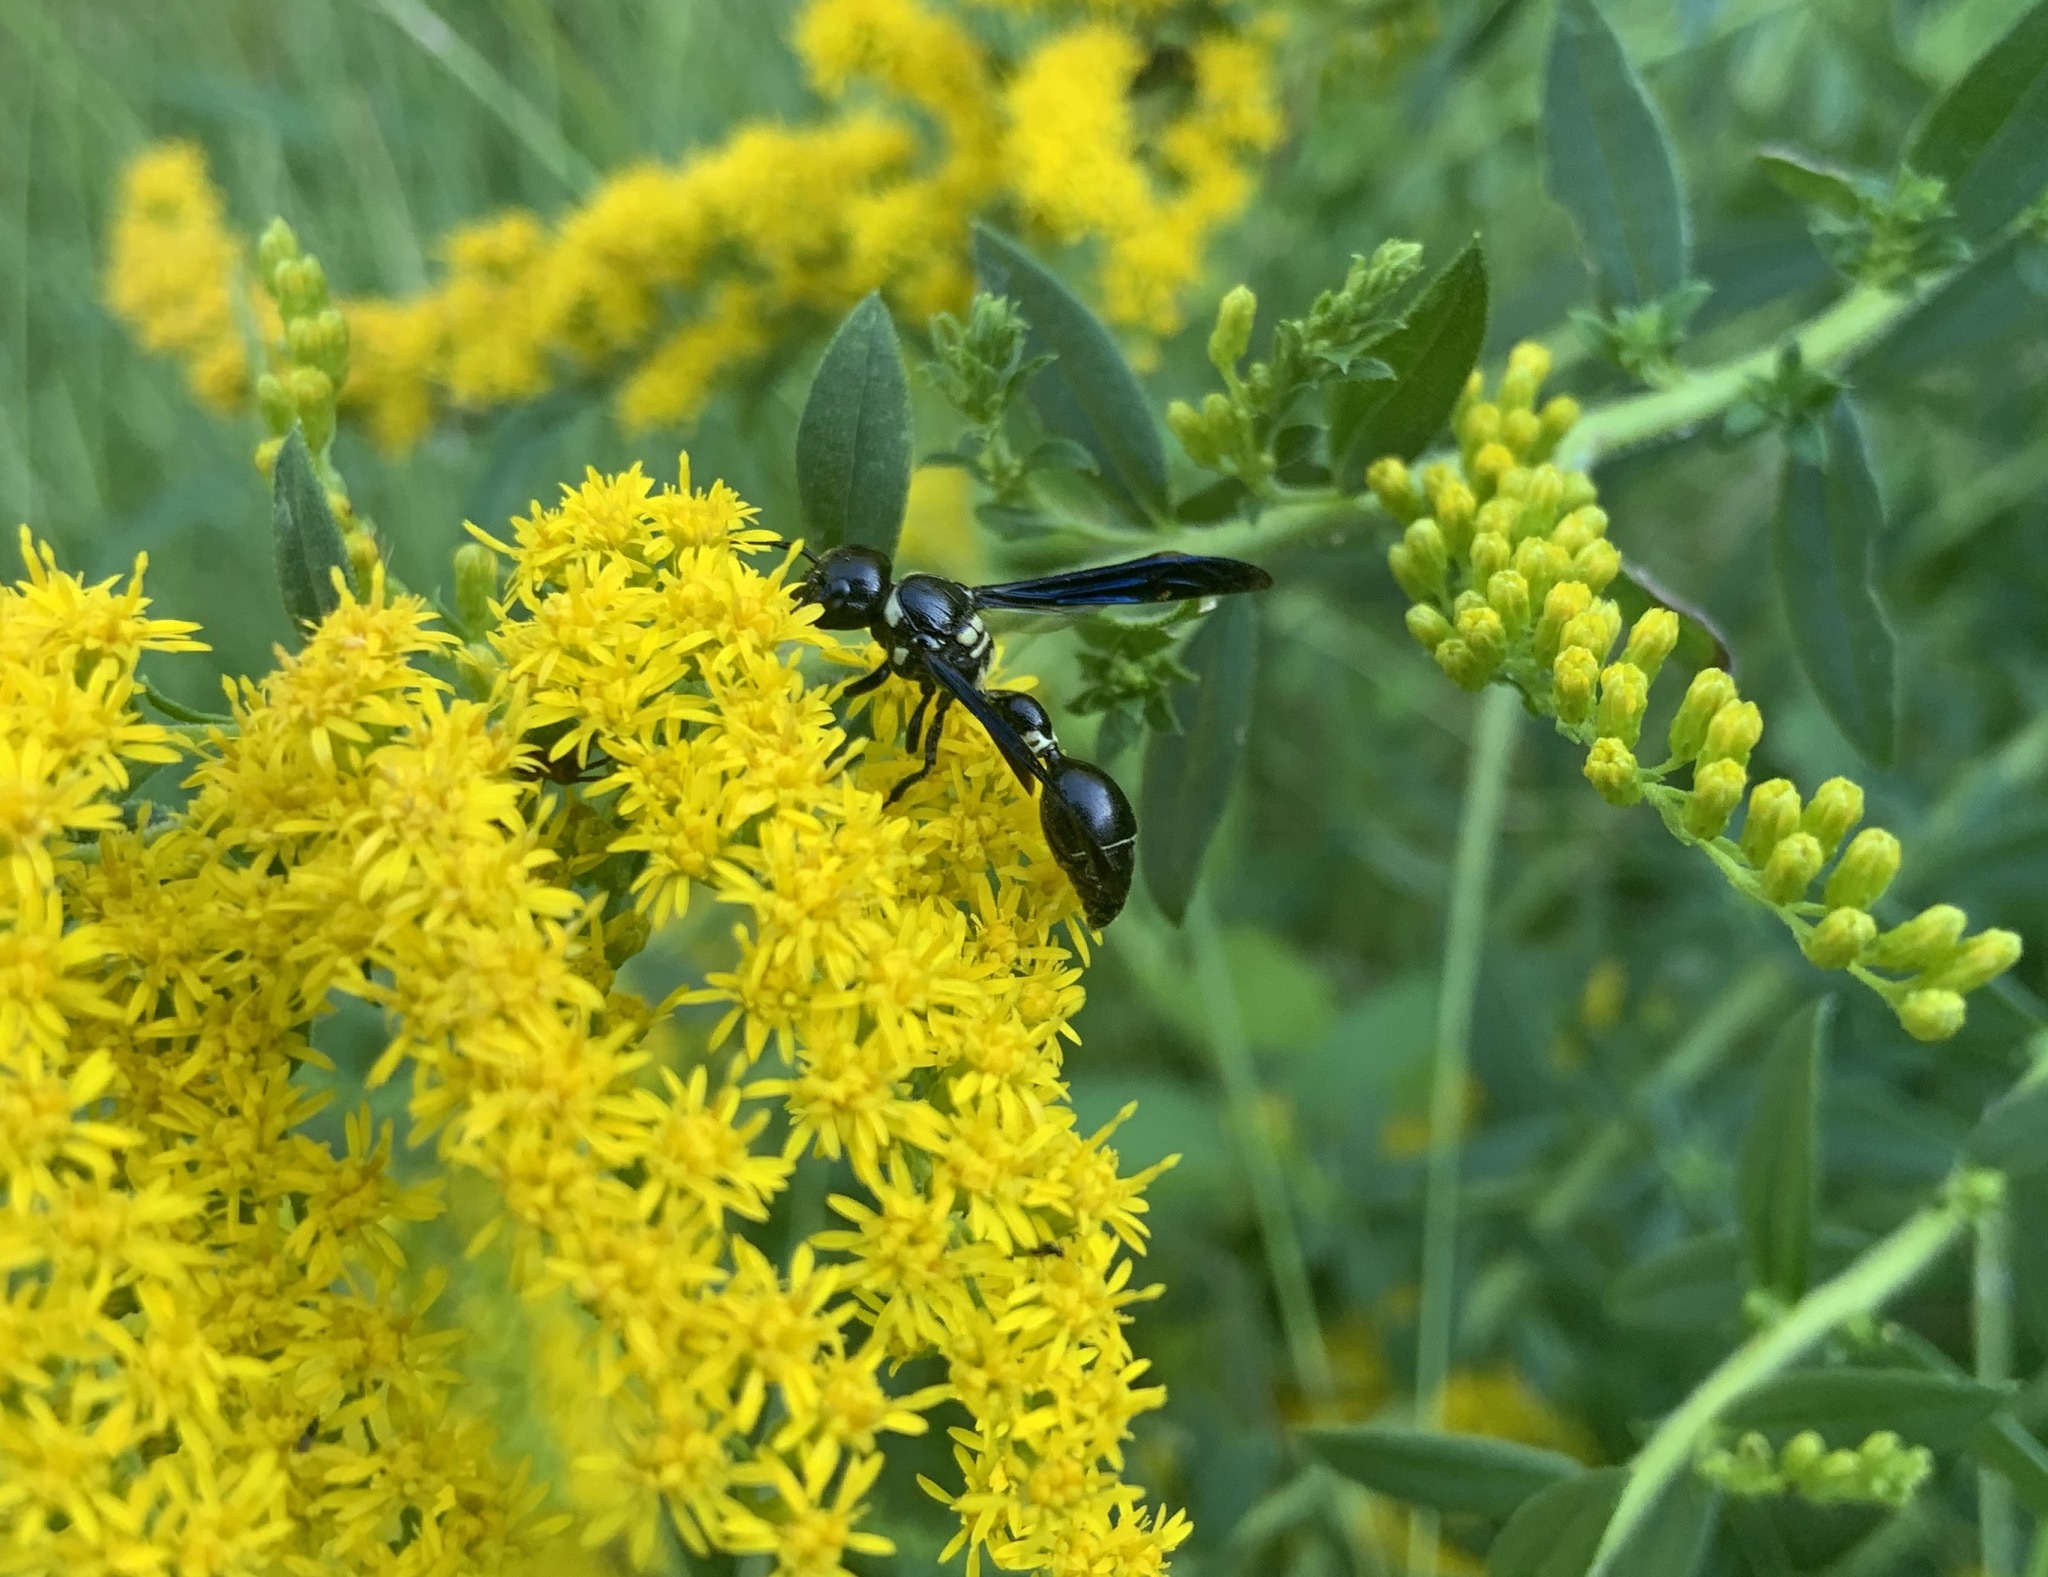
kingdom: Animalia
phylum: Arthropoda
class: Insecta
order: Hymenoptera
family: Eumenidae
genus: Zethus
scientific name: Zethus spinipes
